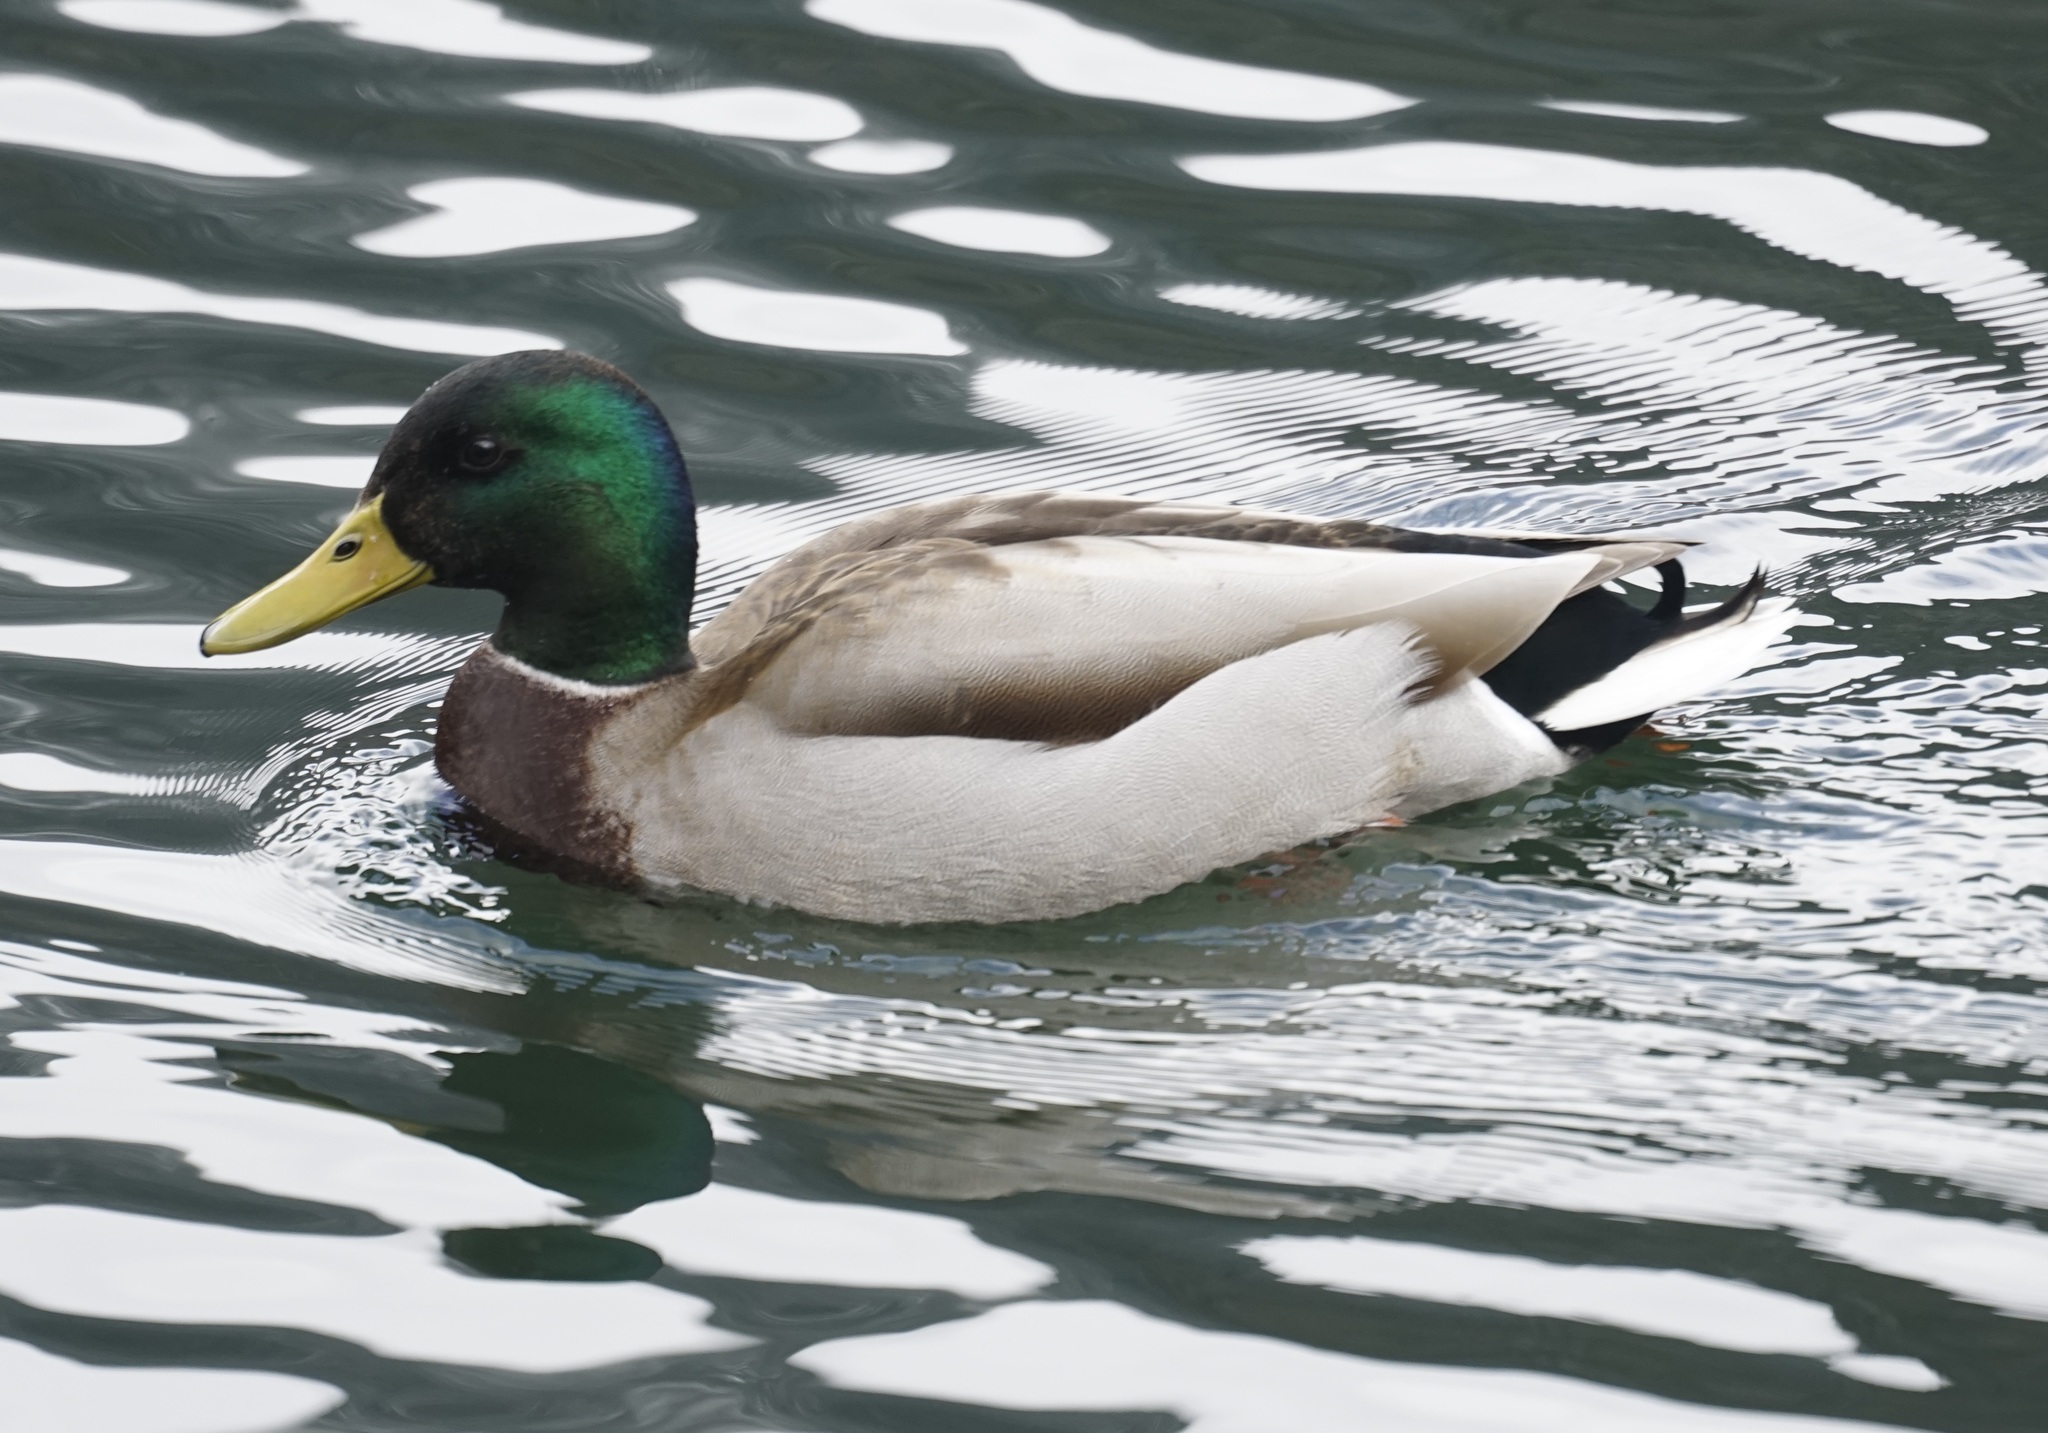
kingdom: Animalia
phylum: Chordata
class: Aves
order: Anseriformes
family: Anatidae
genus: Anas
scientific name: Anas platyrhynchos
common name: Mallard
